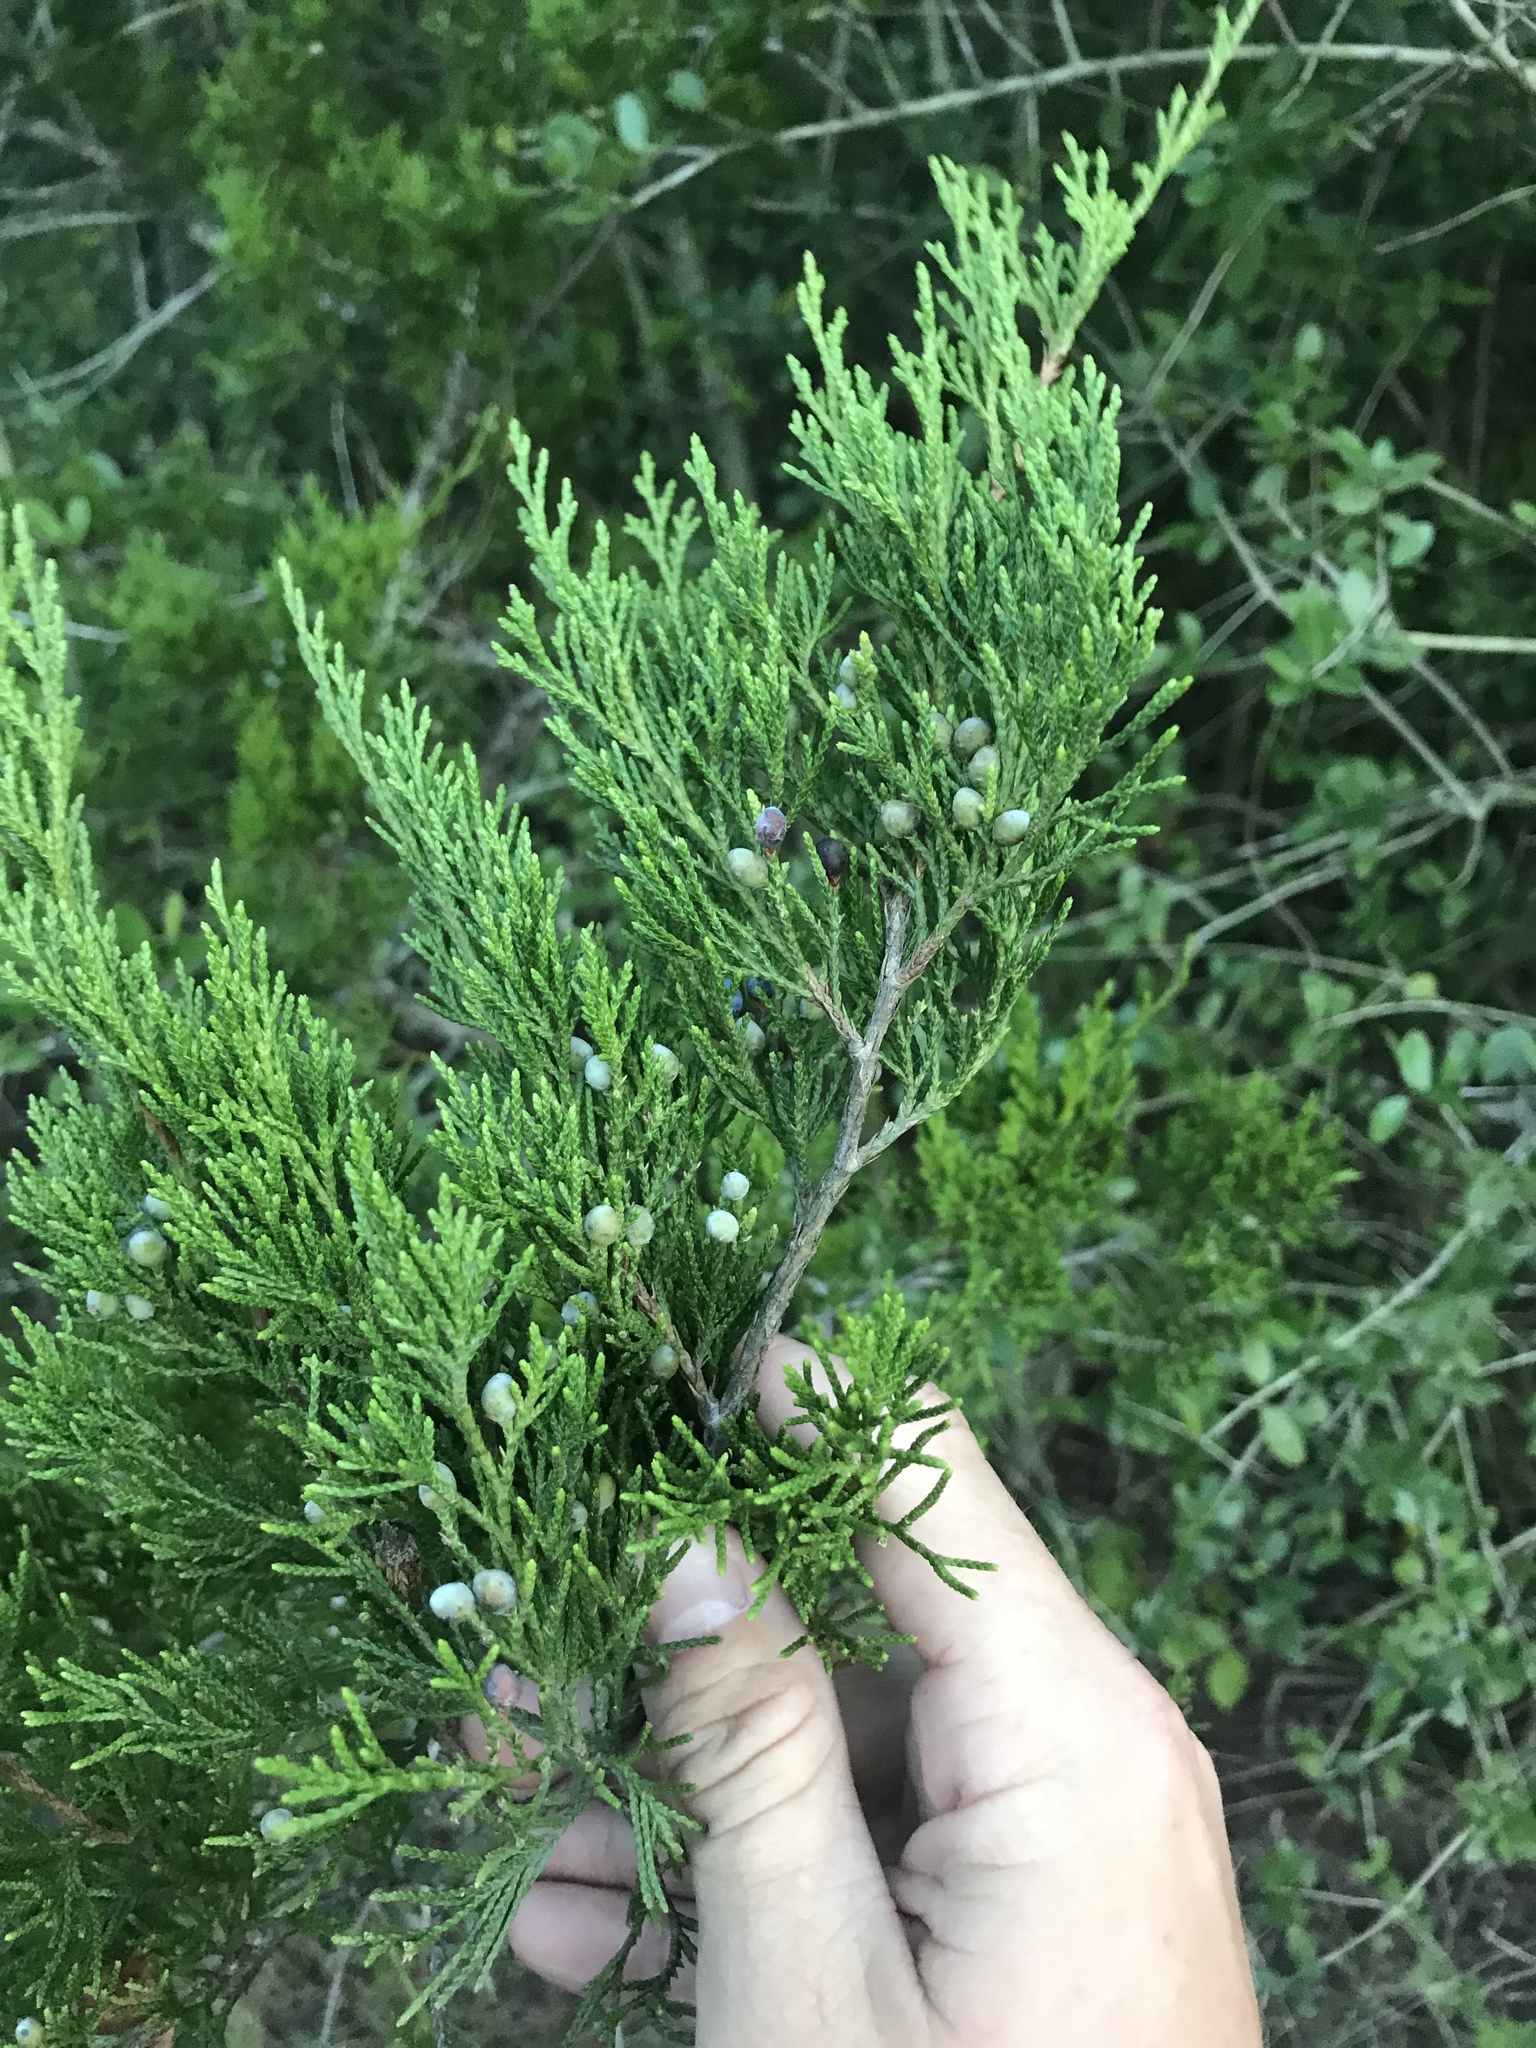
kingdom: Plantae
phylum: Tracheophyta
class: Pinopsida
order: Pinales
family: Cupressaceae
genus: Juniperus
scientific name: Juniperus virginiana
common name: Red juniper
